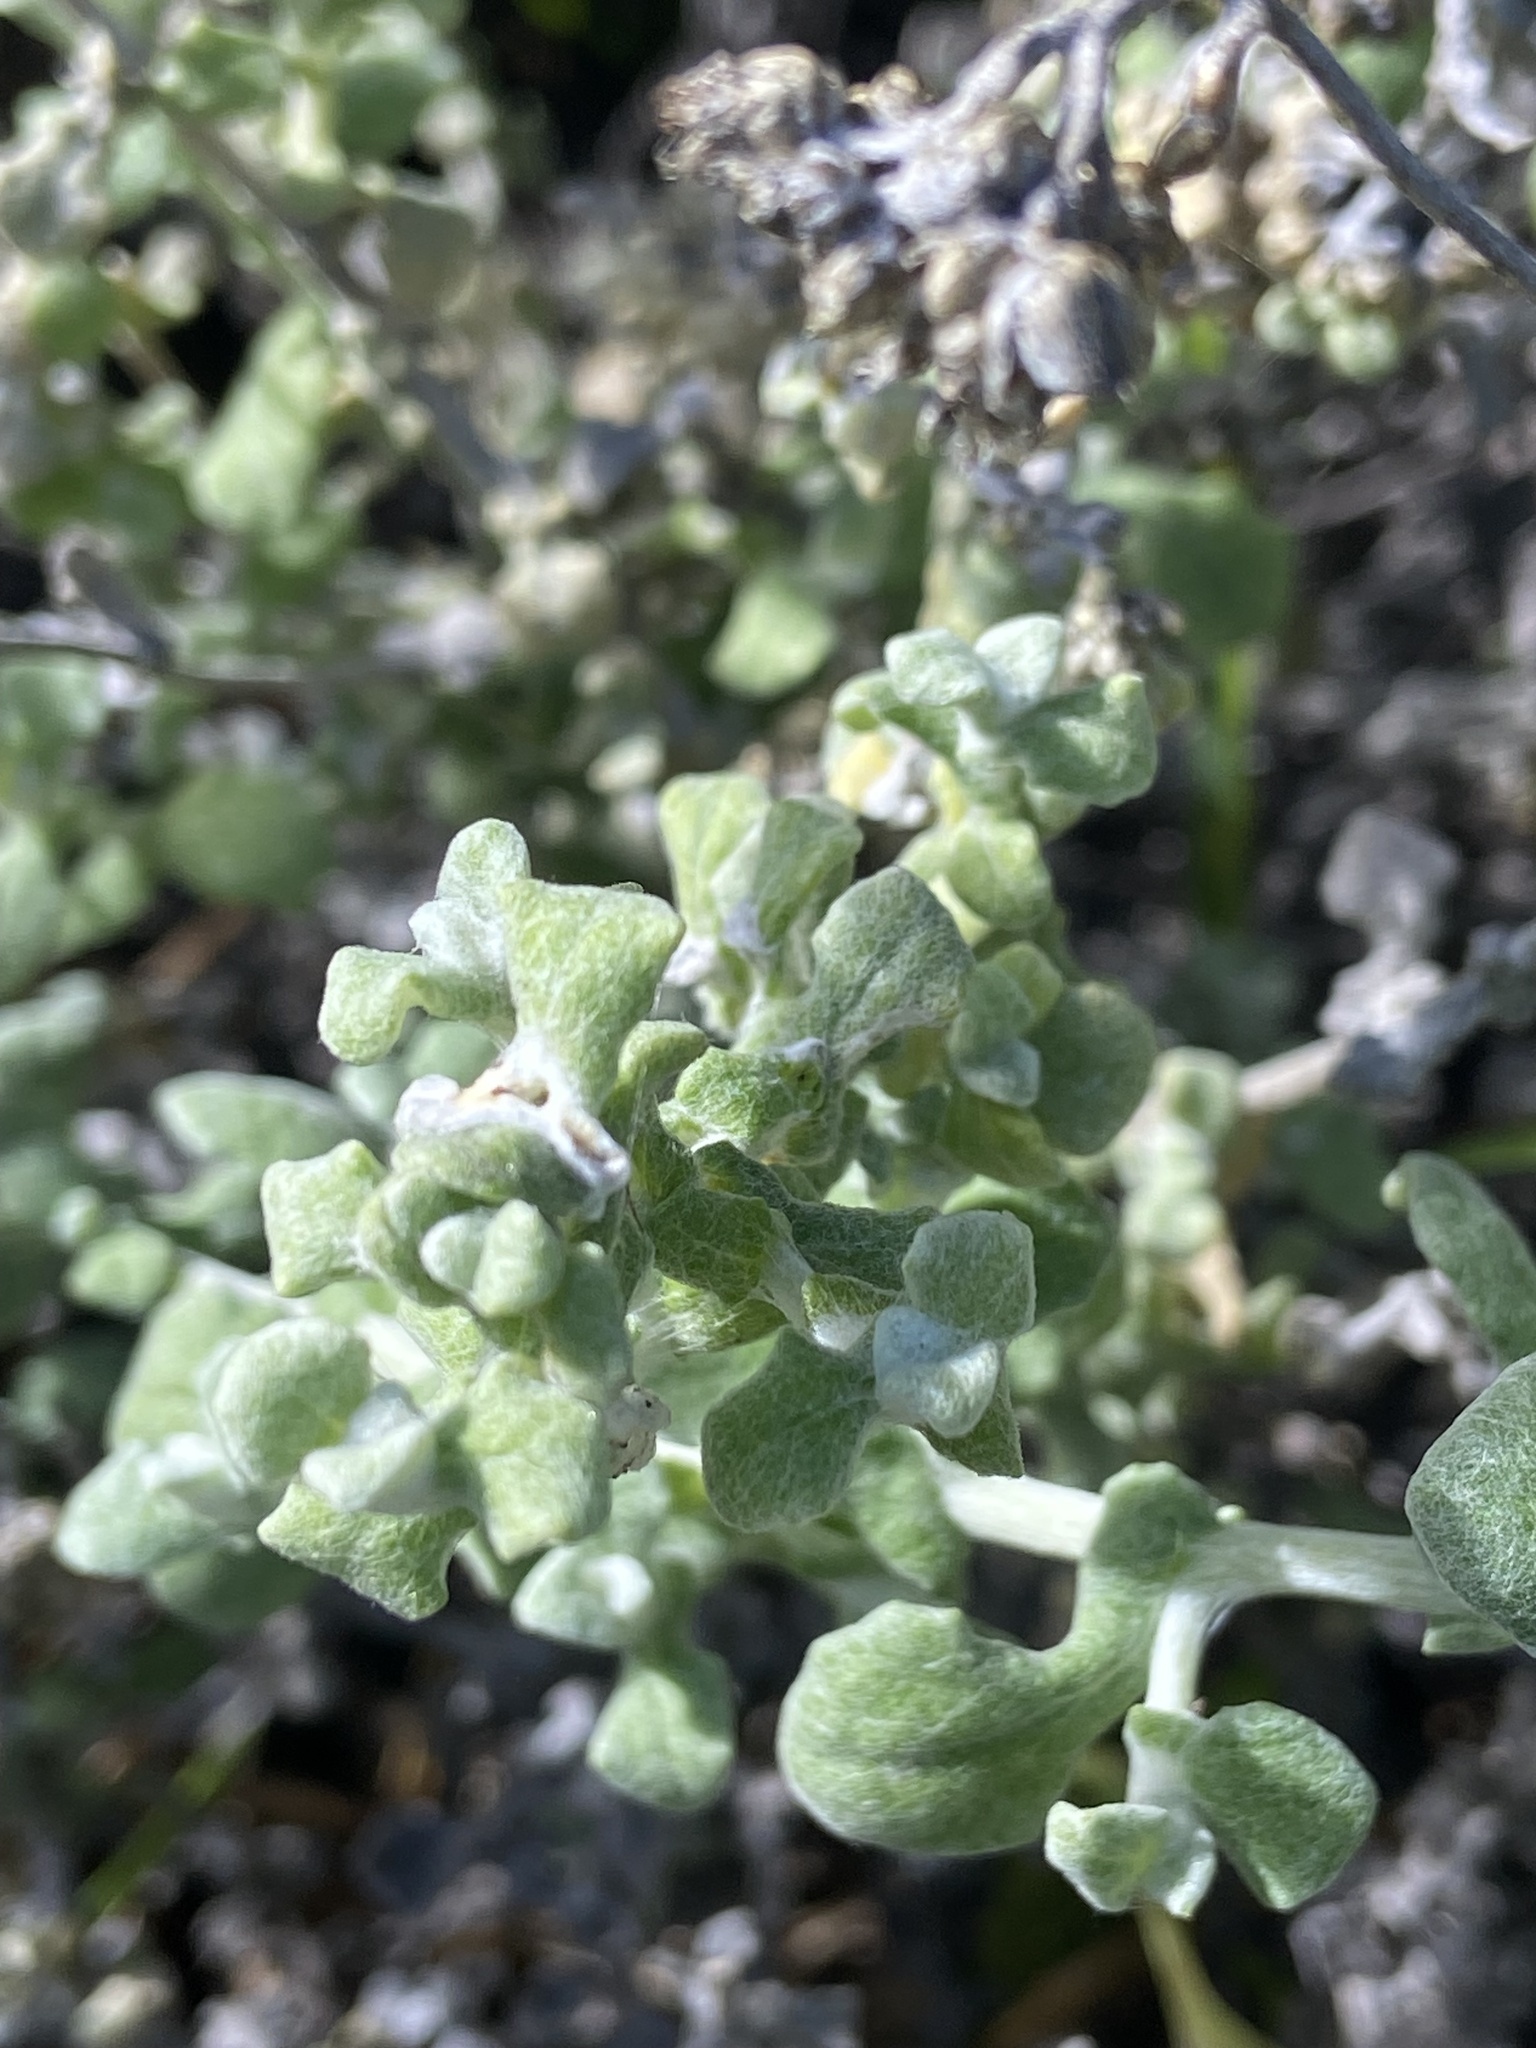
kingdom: Plantae
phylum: Tracheophyta
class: Magnoliopsida
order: Asterales
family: Asteraceae
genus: Helichrysum
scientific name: Helichrysum patulum
